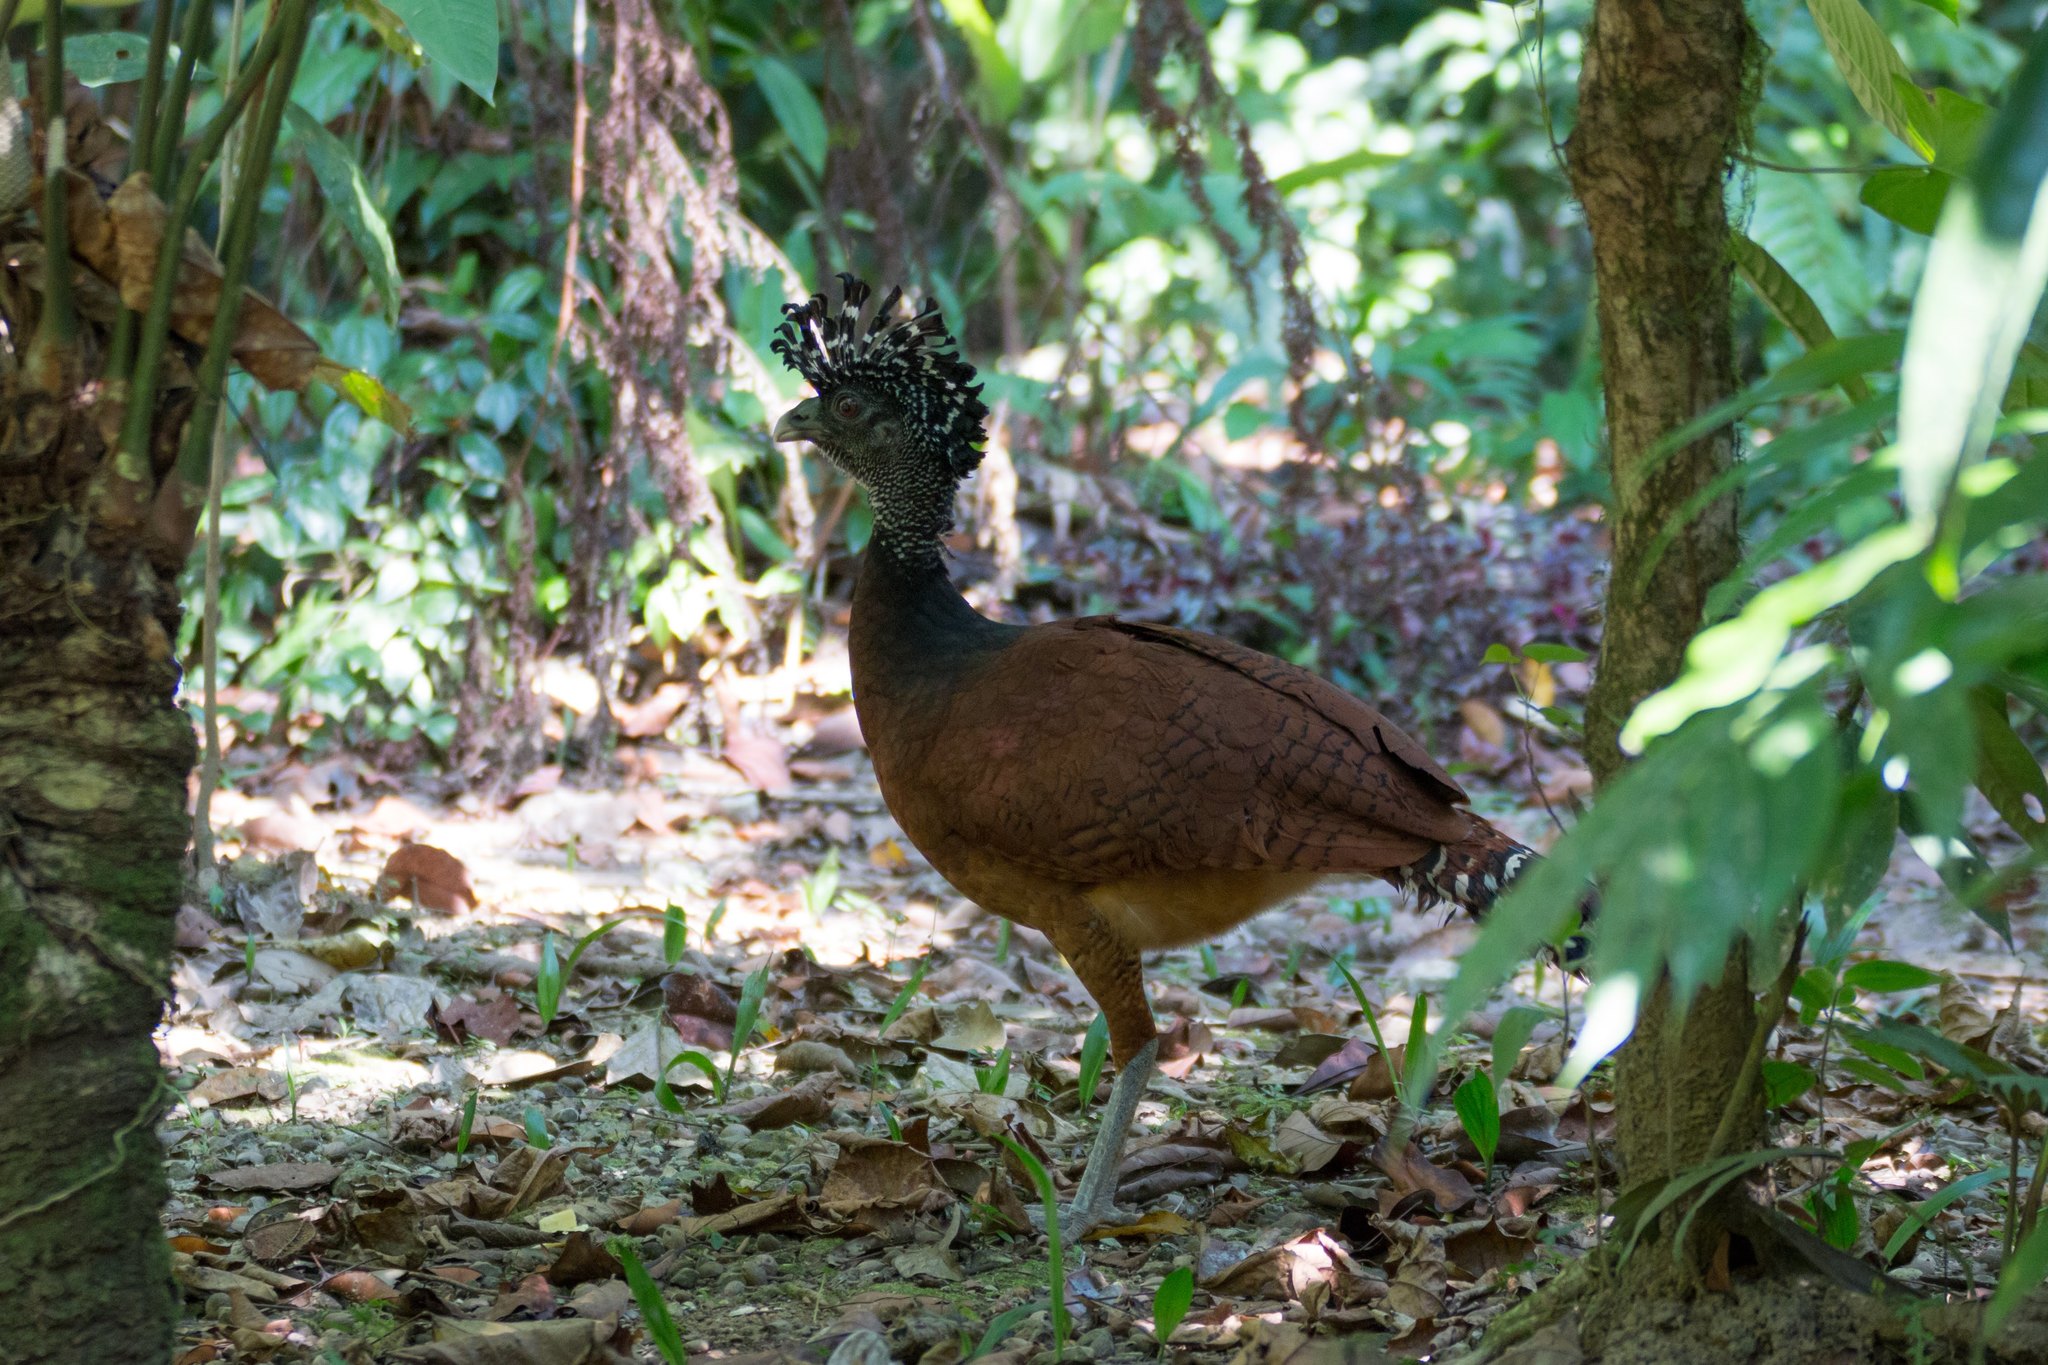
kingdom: Animalia
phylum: Chordata
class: Aves
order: Galliformes
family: Cracidae
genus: Crax
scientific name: Crax rubra
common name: Great curassow
